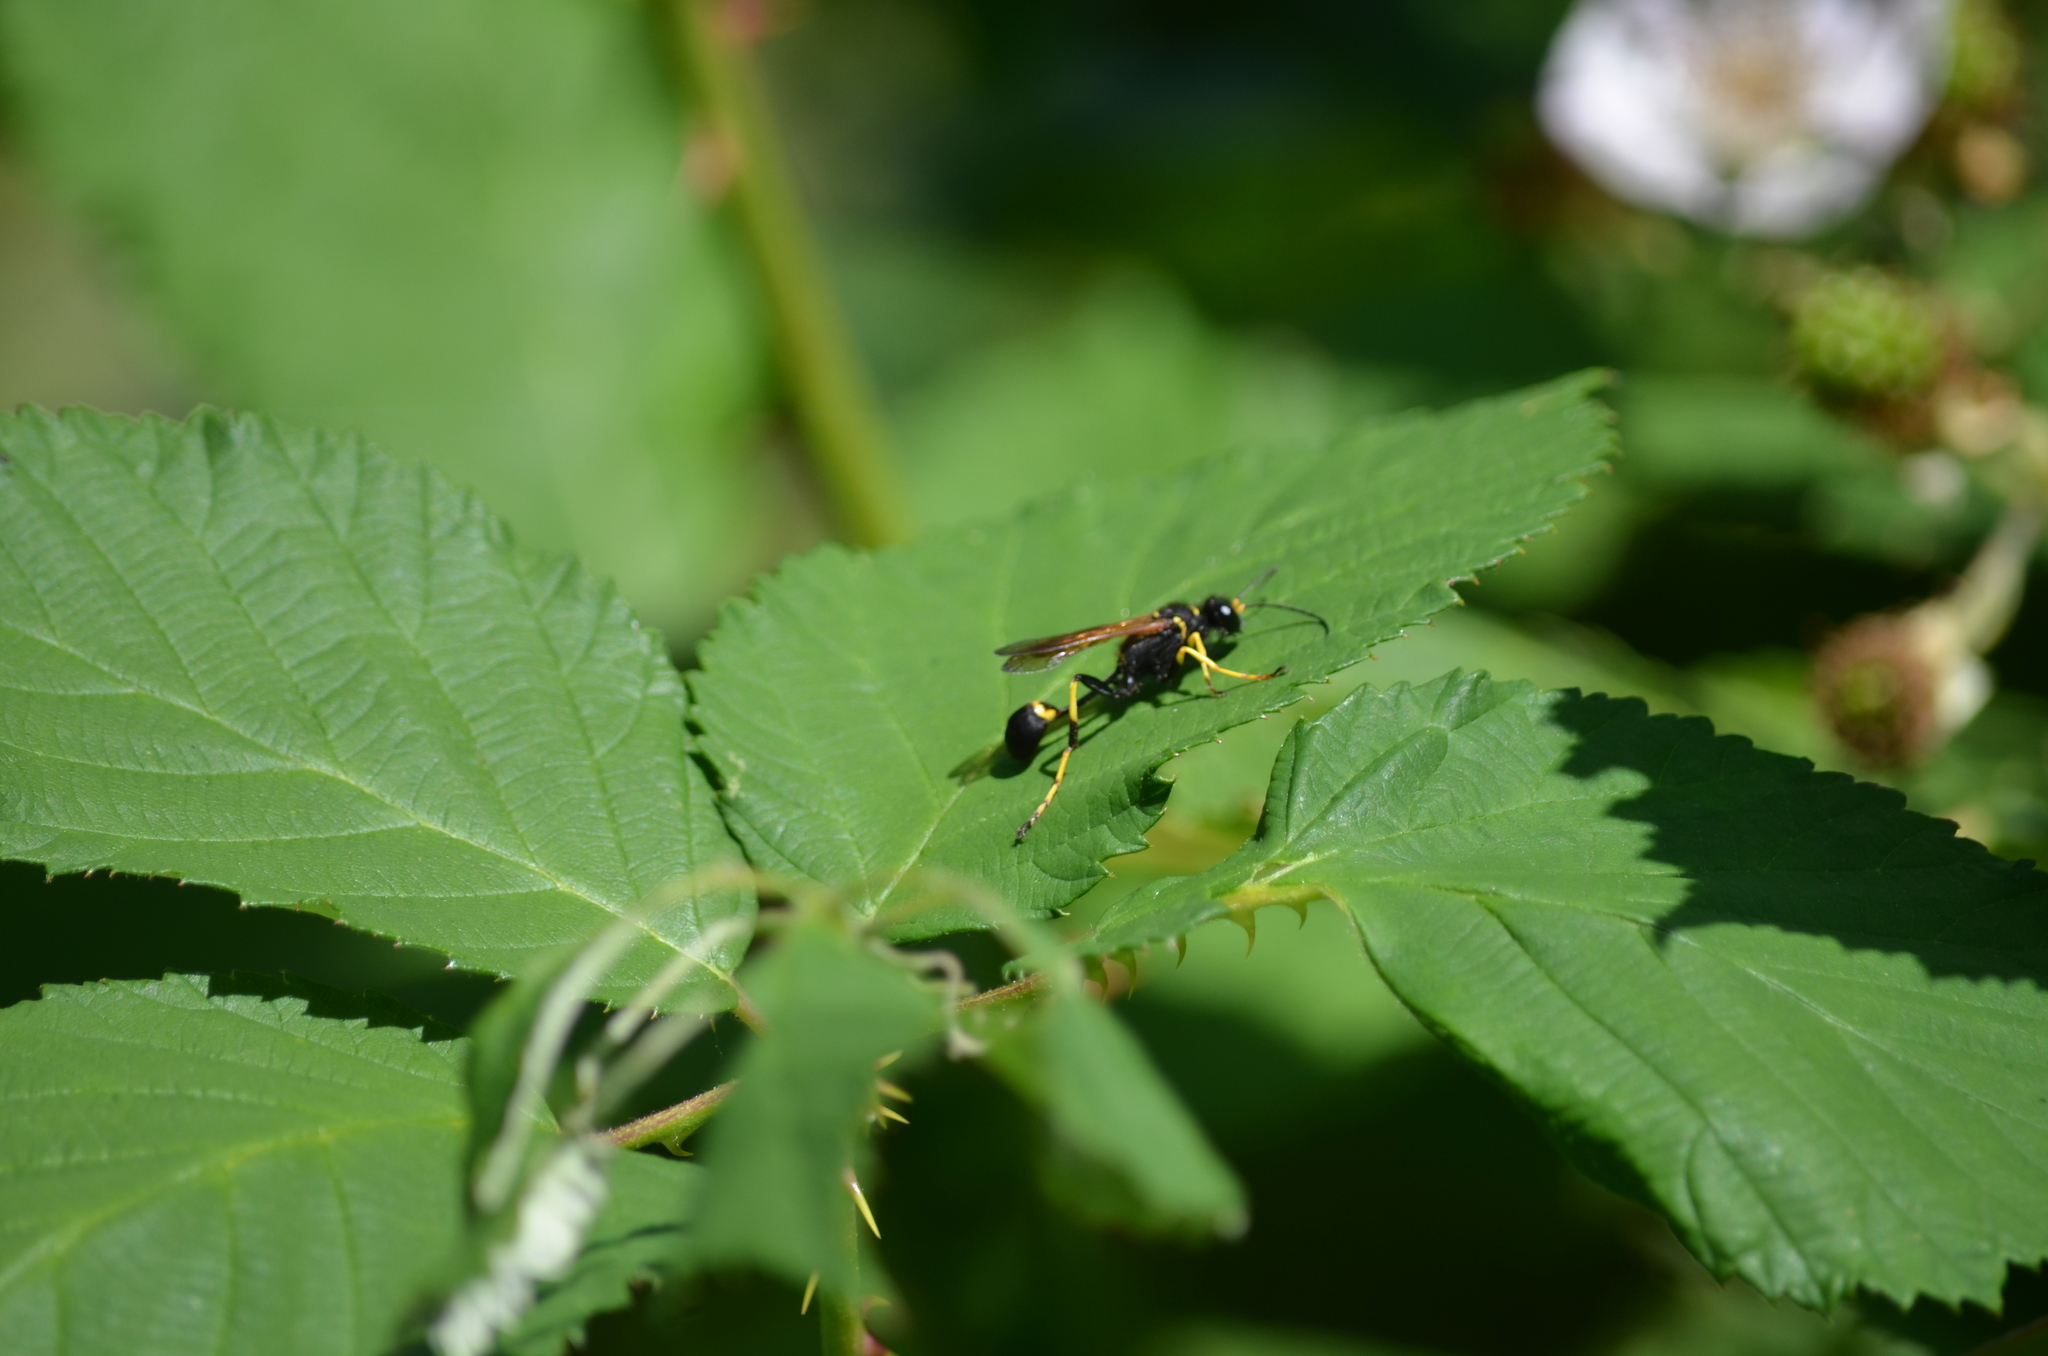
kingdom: Animalia
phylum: Arthropoda
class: Insecta
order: Hymenoptera
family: Sphecidae
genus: Sceliphron
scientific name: Sceliphron caementarium
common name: Mud dauber
